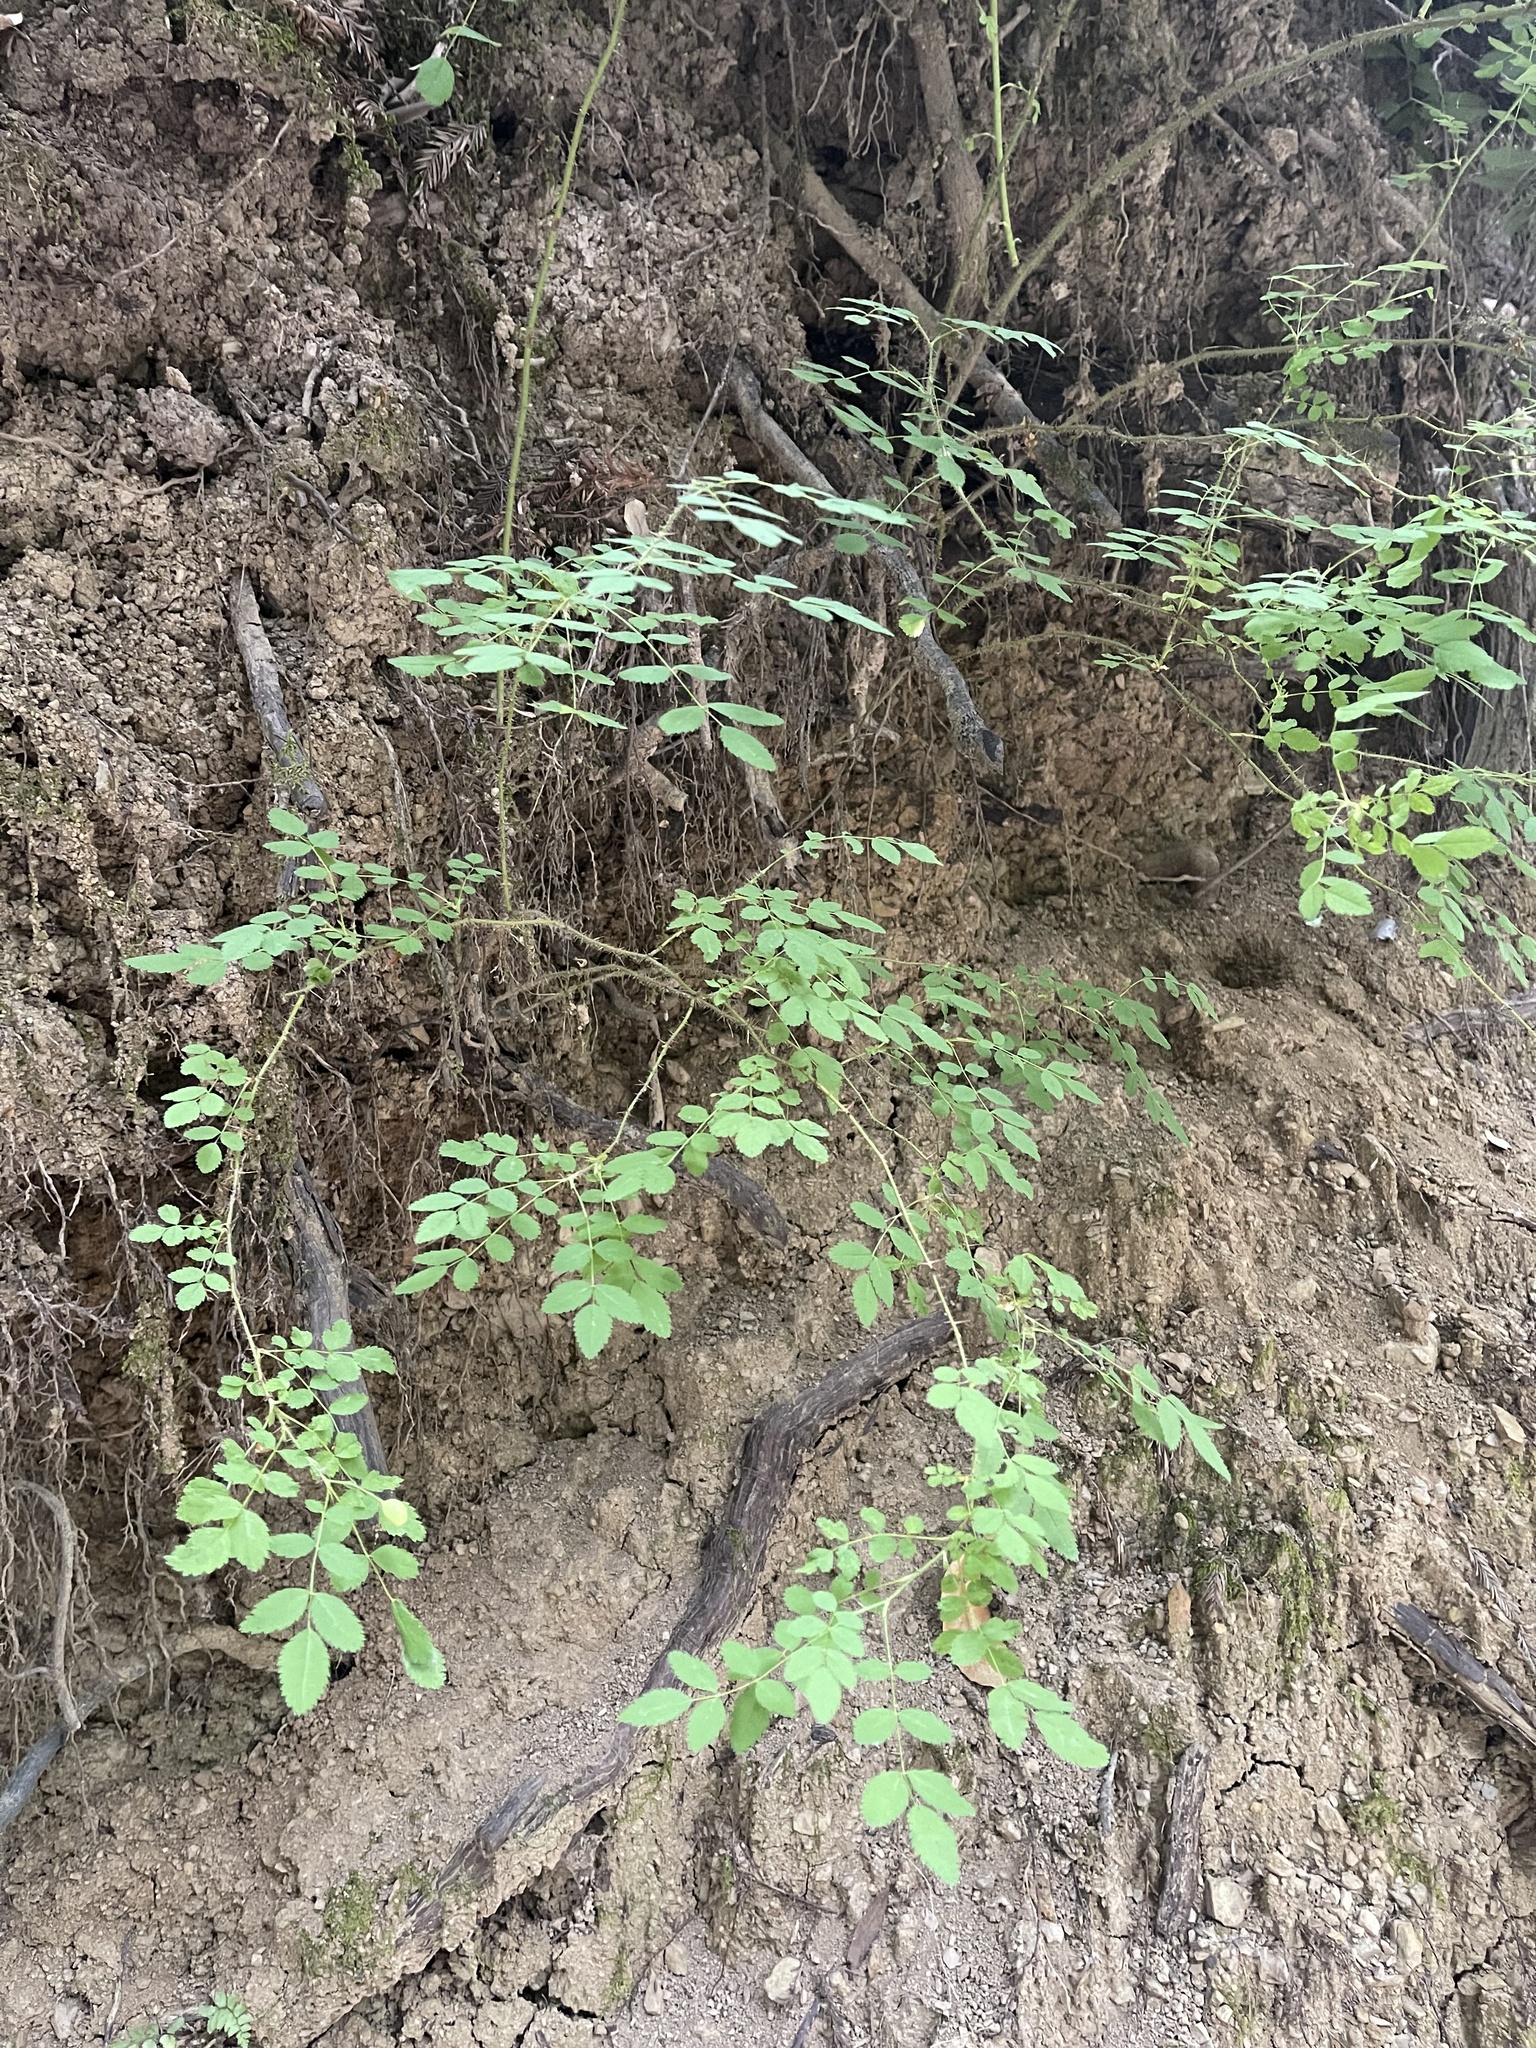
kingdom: Plantae
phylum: Tracheophyta
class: Magnoliopsida
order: Rosales
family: Rosaceae
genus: Rosa
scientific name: Rosa gymnocarpa
